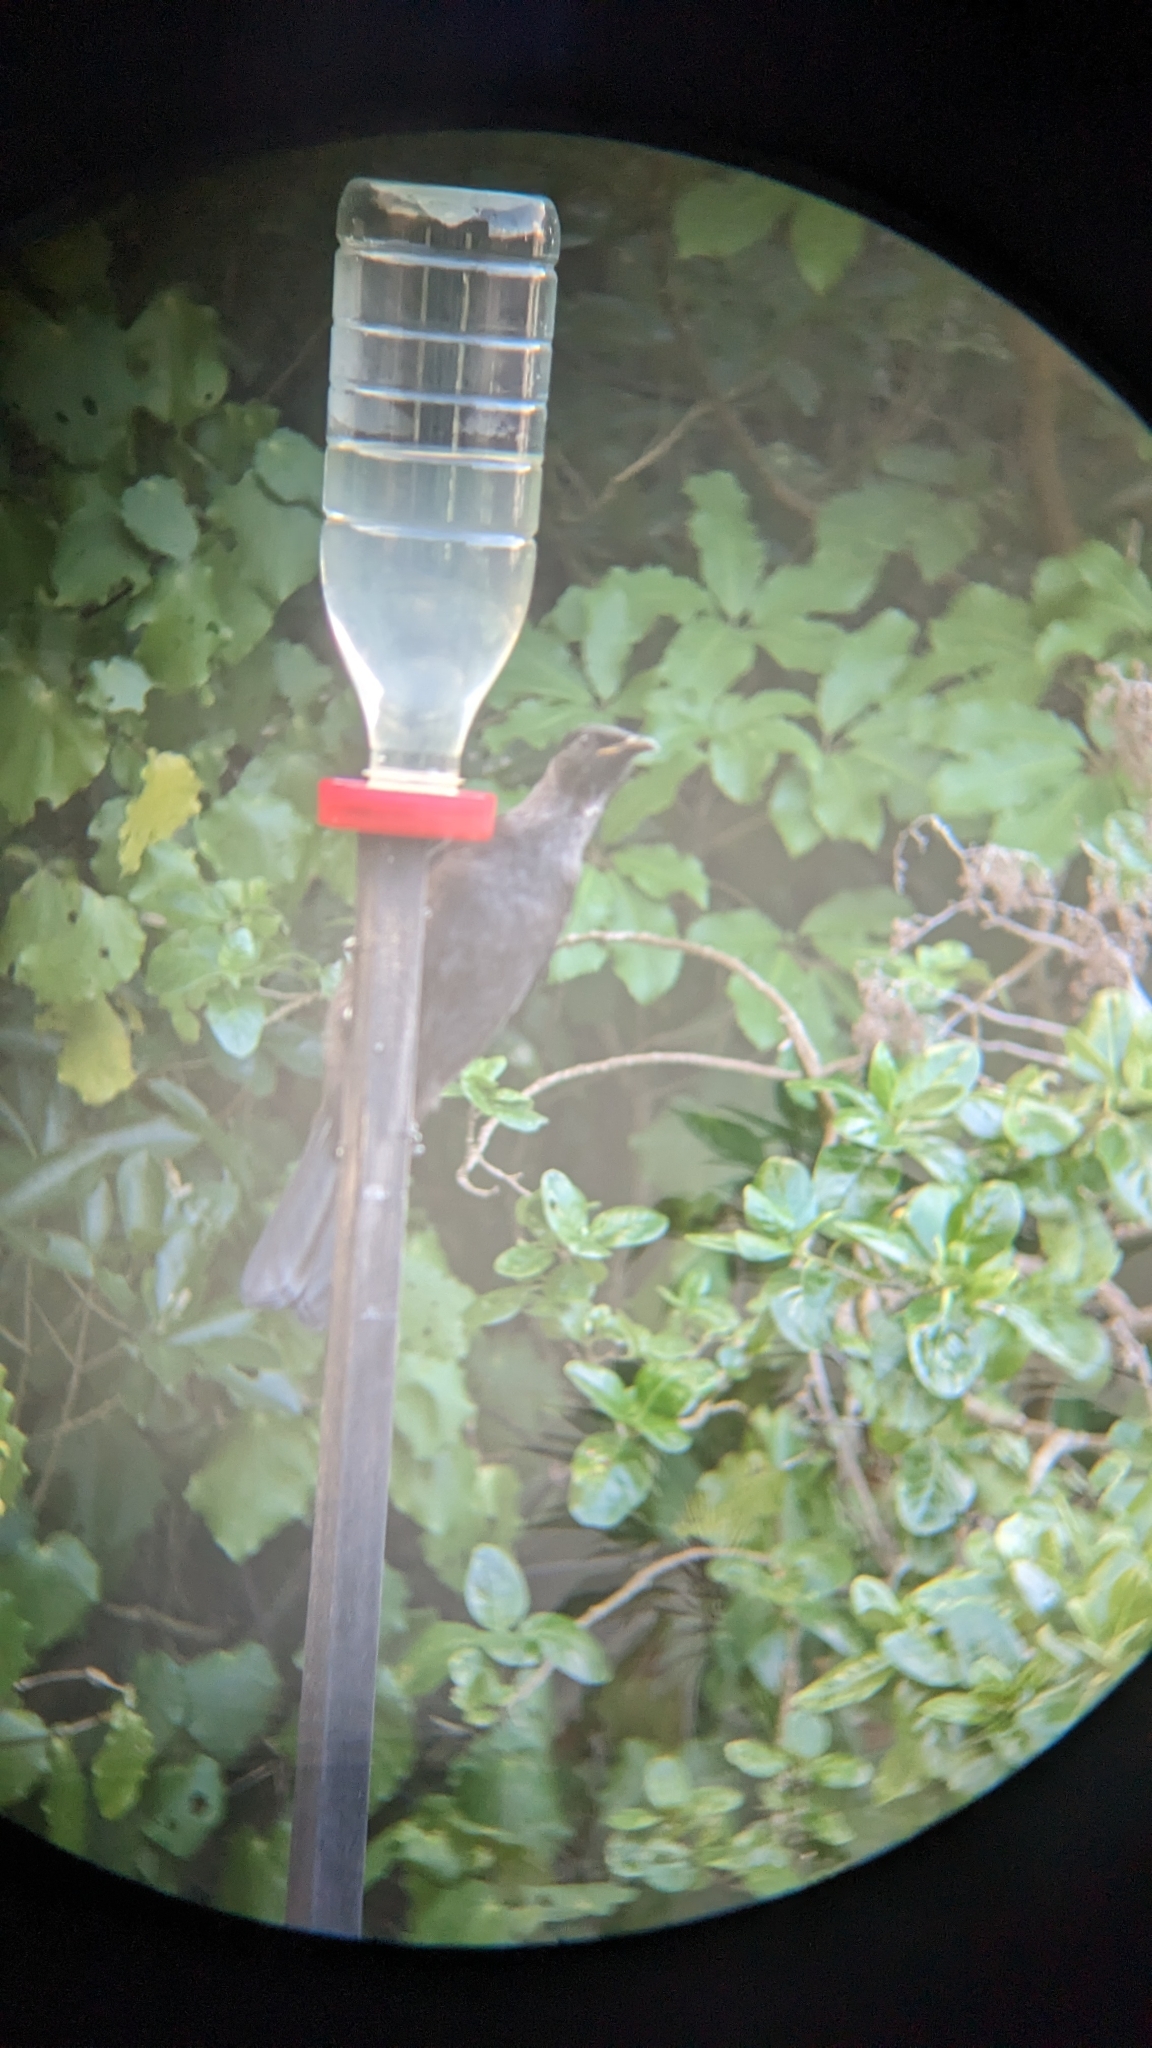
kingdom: Animalia
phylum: Chordata
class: Aves
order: Passeriformes
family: Meliphagidae
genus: Prosthemadera
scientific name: Prosthemadera novaeseelandiae
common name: Tui
